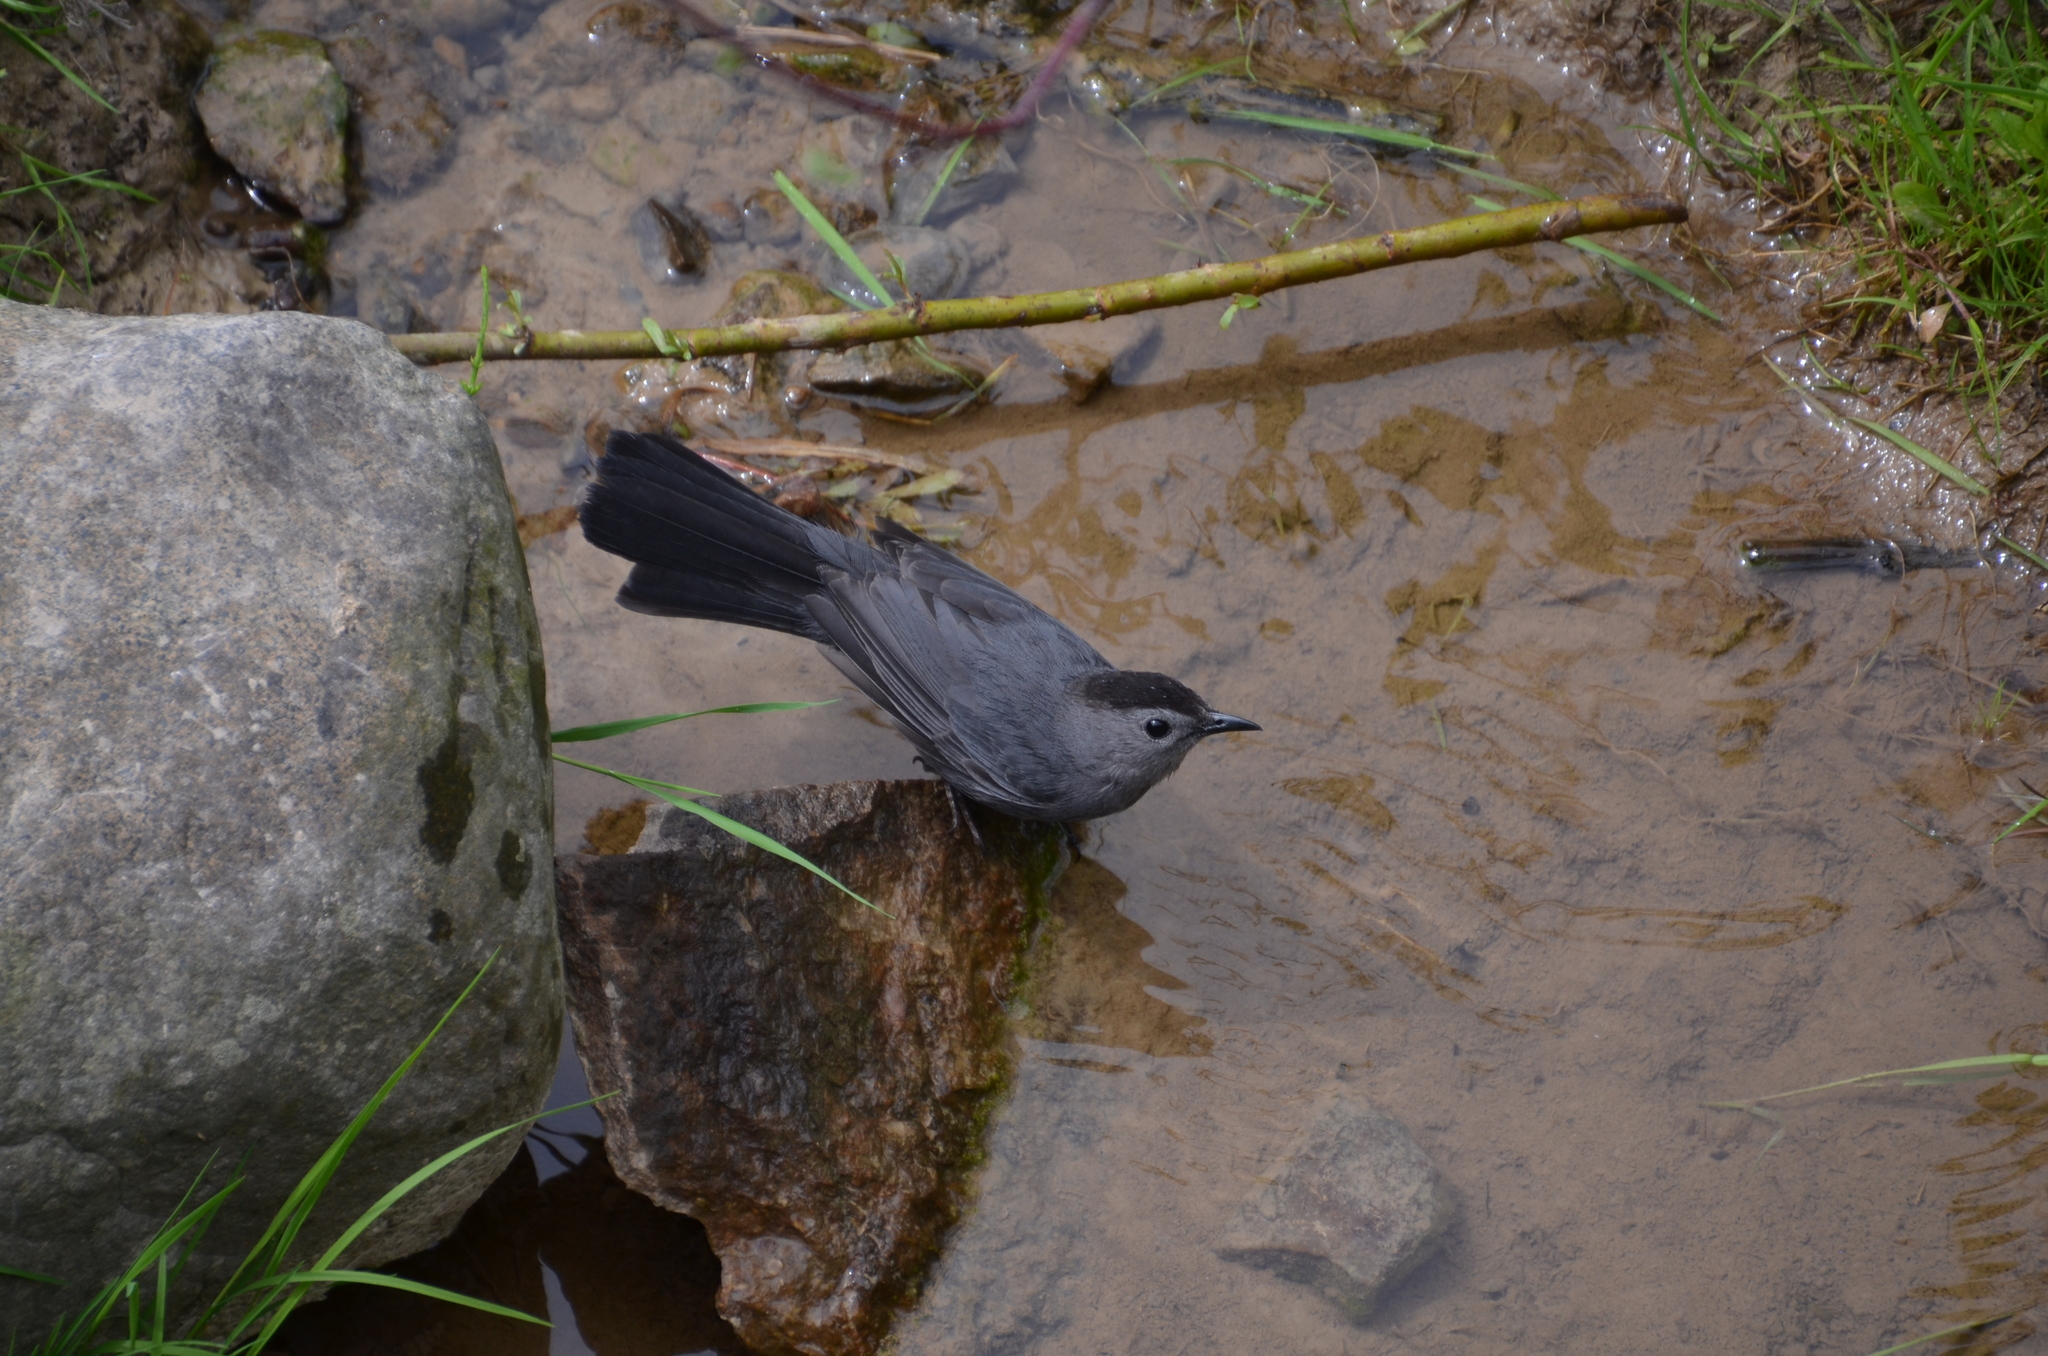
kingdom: Animalia
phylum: Chordata
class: Aves
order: Passeriformes
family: Mimidae
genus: Dumetella
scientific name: Dumetella carolinensis
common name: Gray catbird
